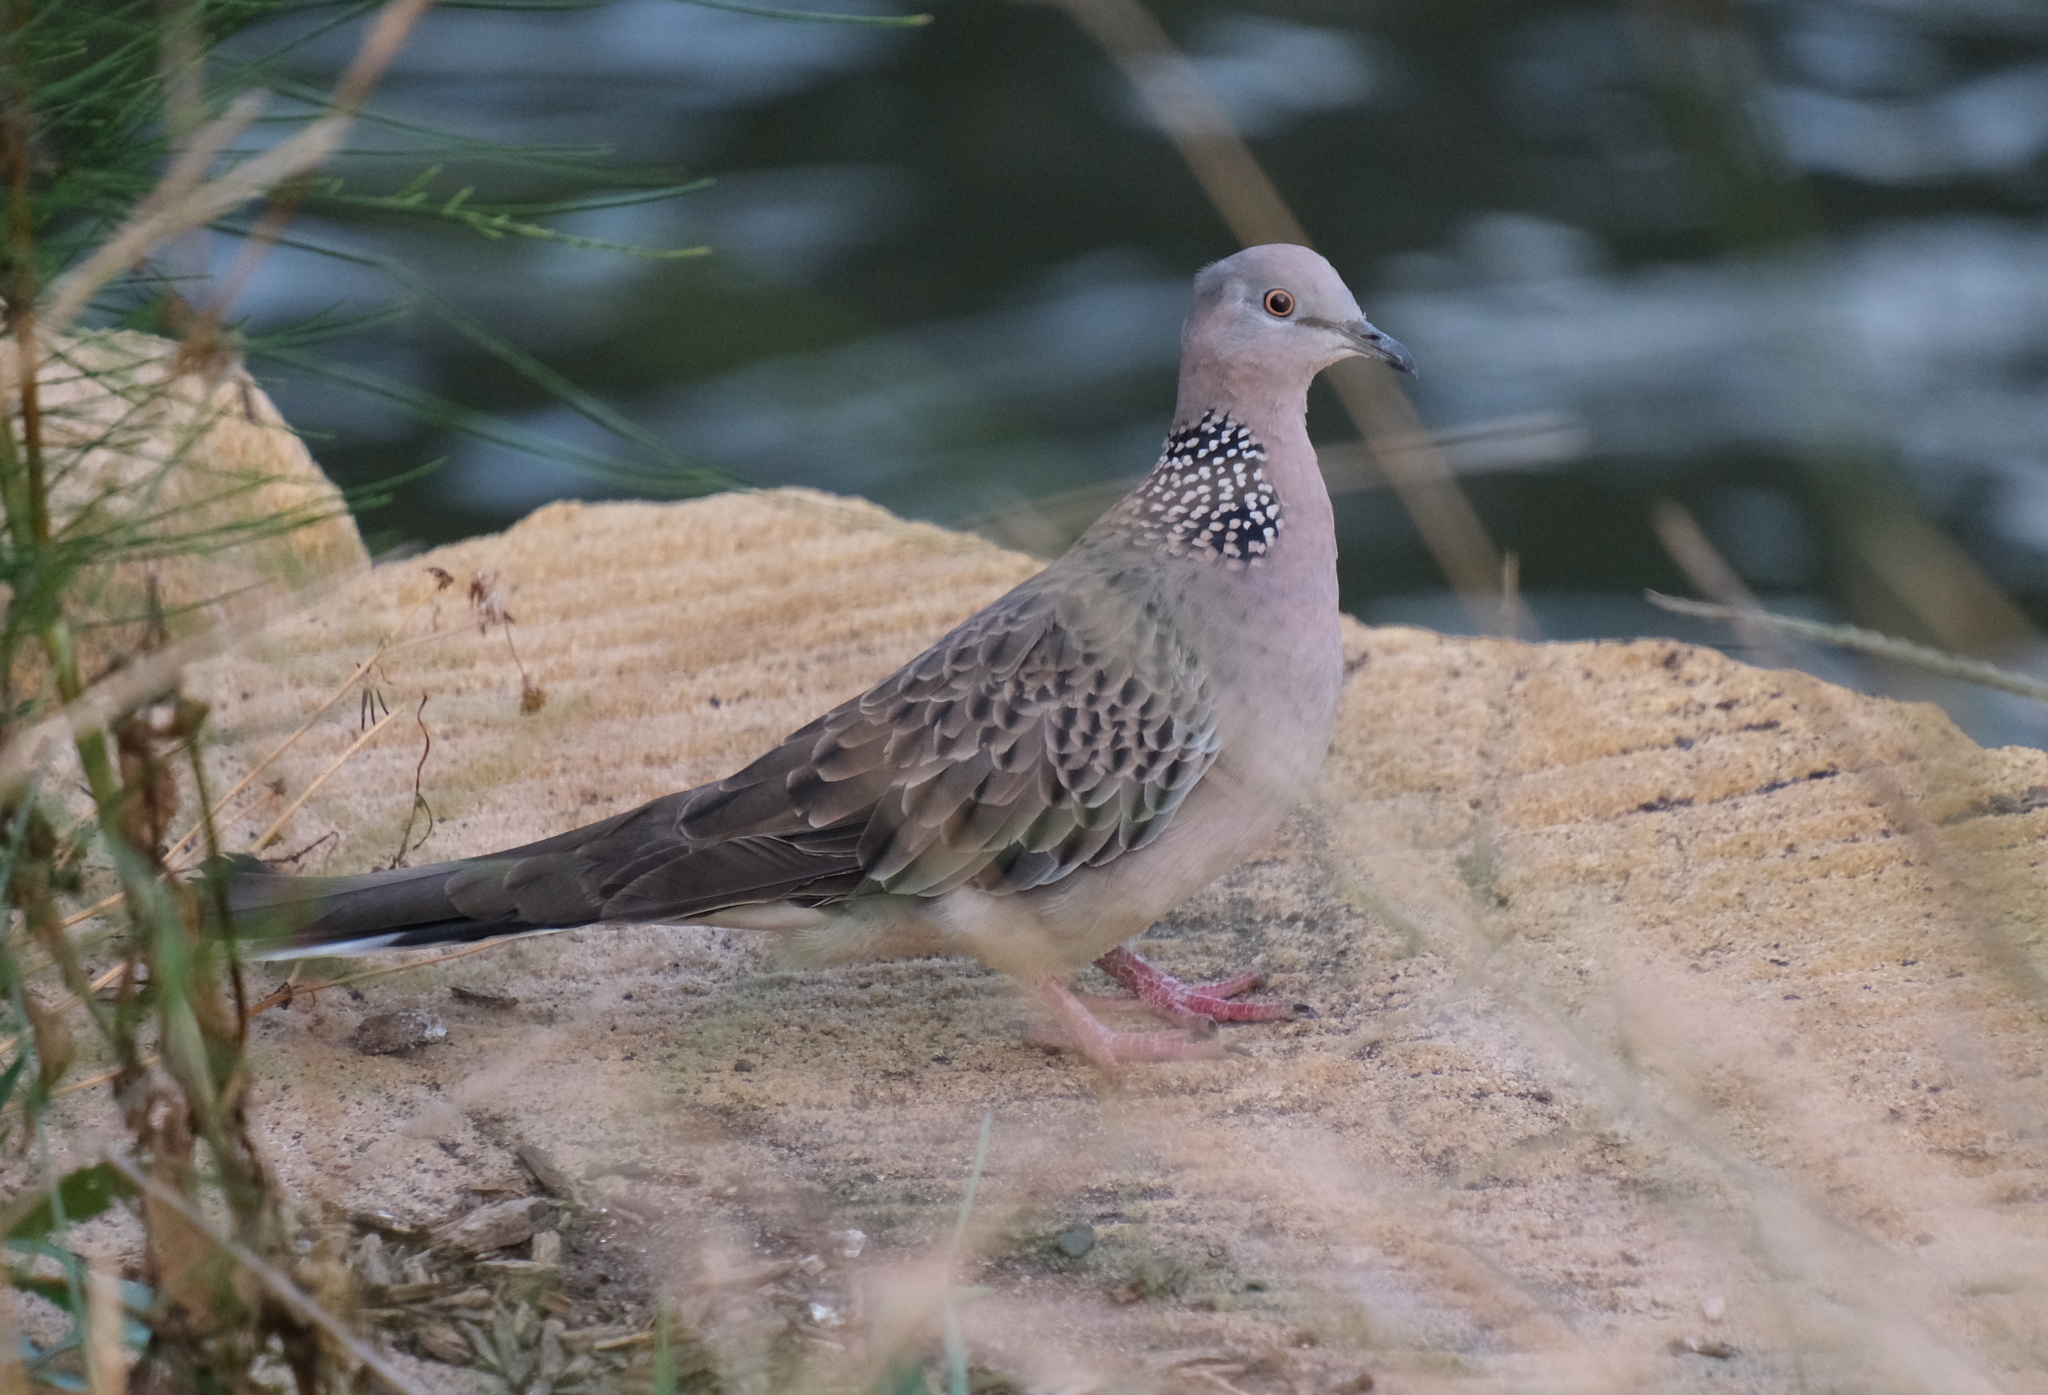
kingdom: Animalia
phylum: Chordata
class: Aves
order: Columbiformes
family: Columbidae
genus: Spilopelia
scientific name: Spilopelia chinensis
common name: Spotted dove
